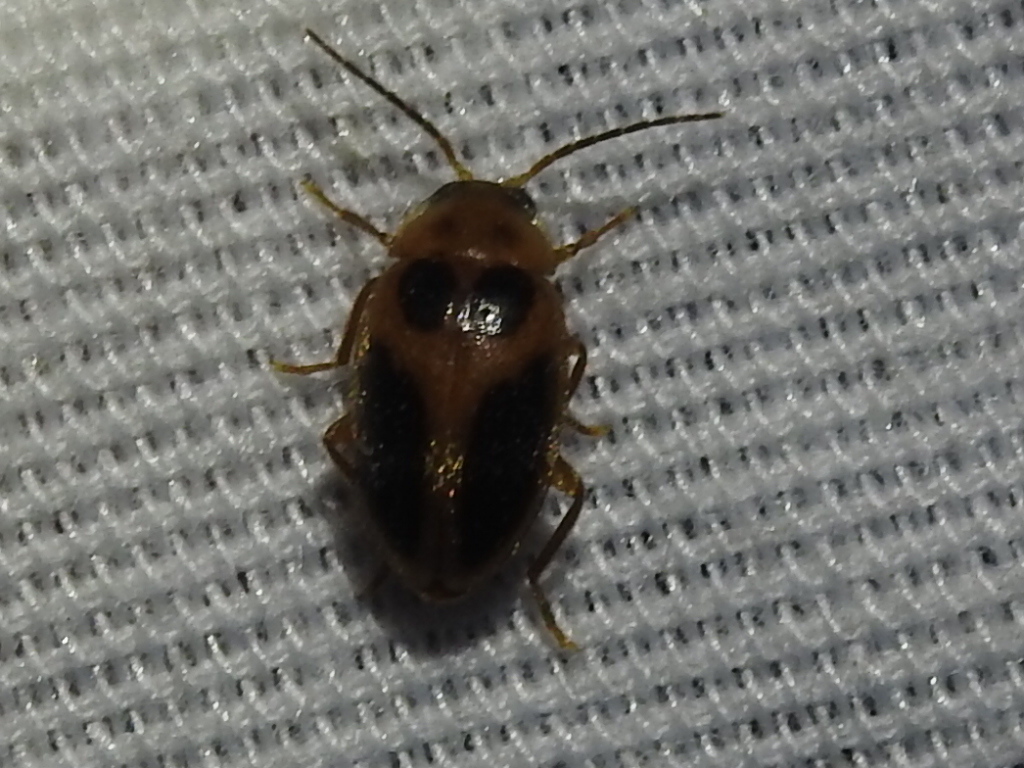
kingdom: Animalia
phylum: Arthropoda
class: Insecta
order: Coleoptera
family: Scirtidae
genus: Sacodes
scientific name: Sacodes pulchella
